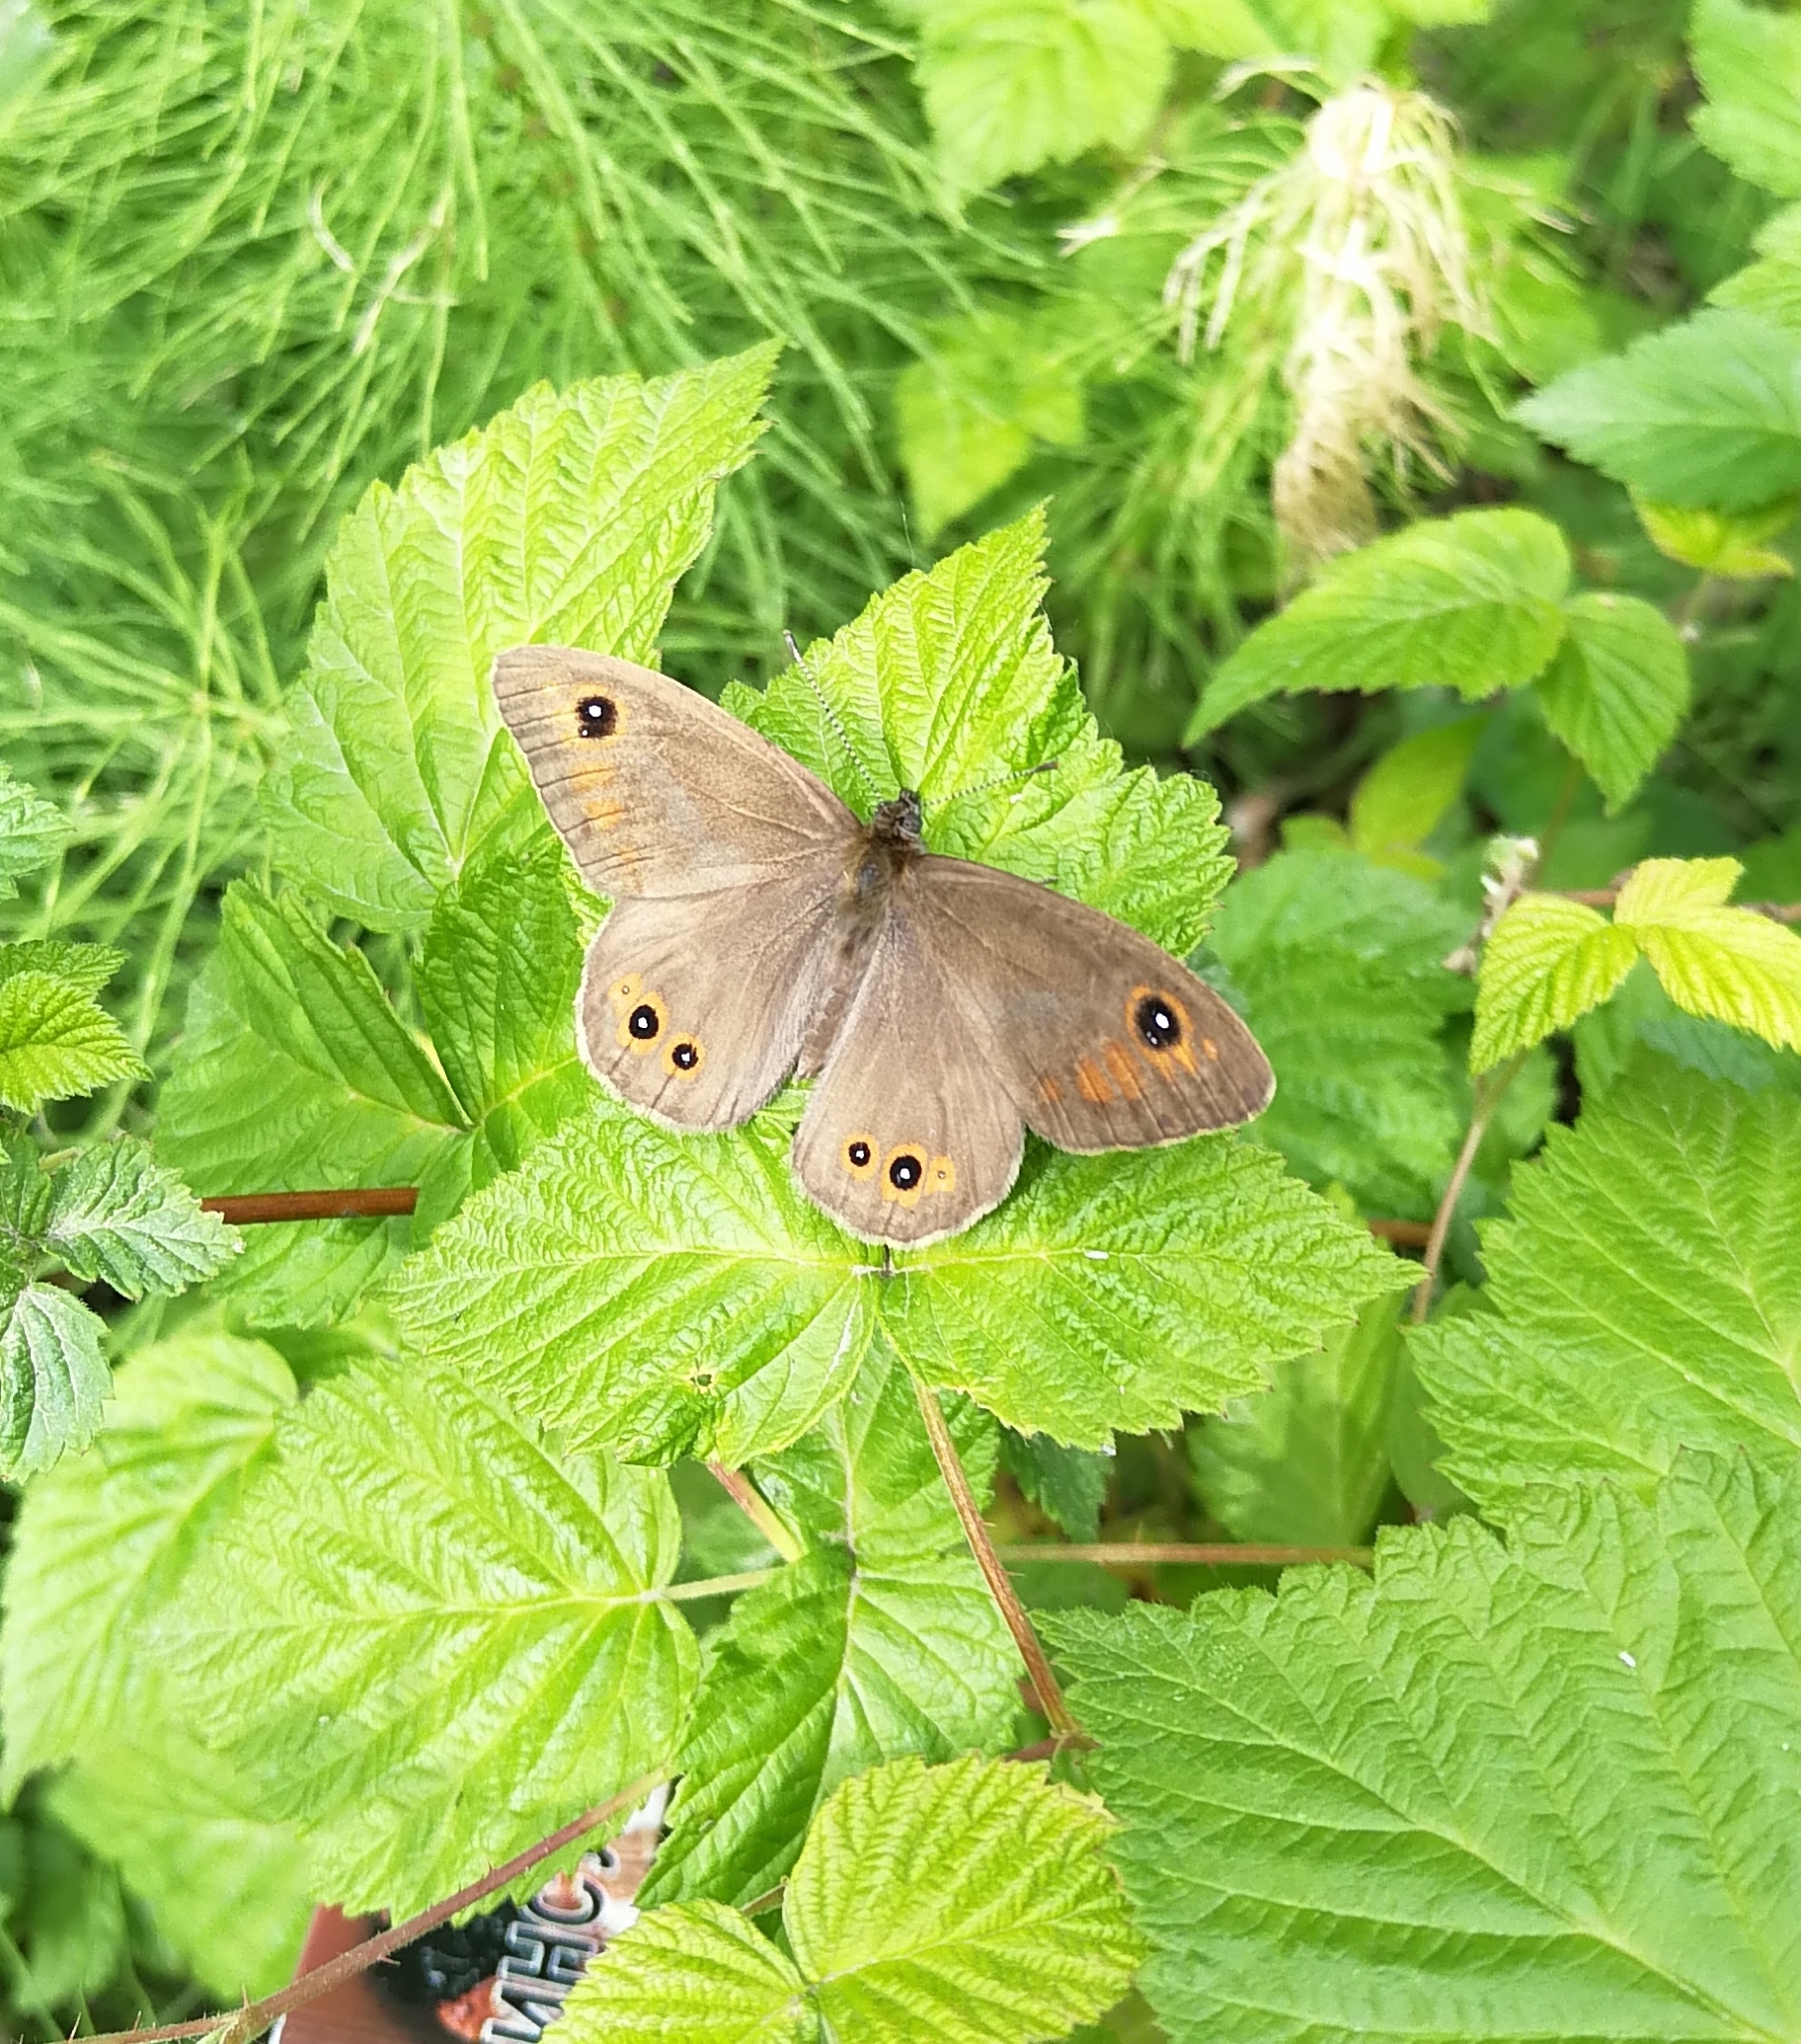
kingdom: Animalia
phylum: Arthropoda
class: Insecta
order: Lepidoptera
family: Nymphalidae
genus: Pararge
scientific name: Pararge Lasiommata maera
